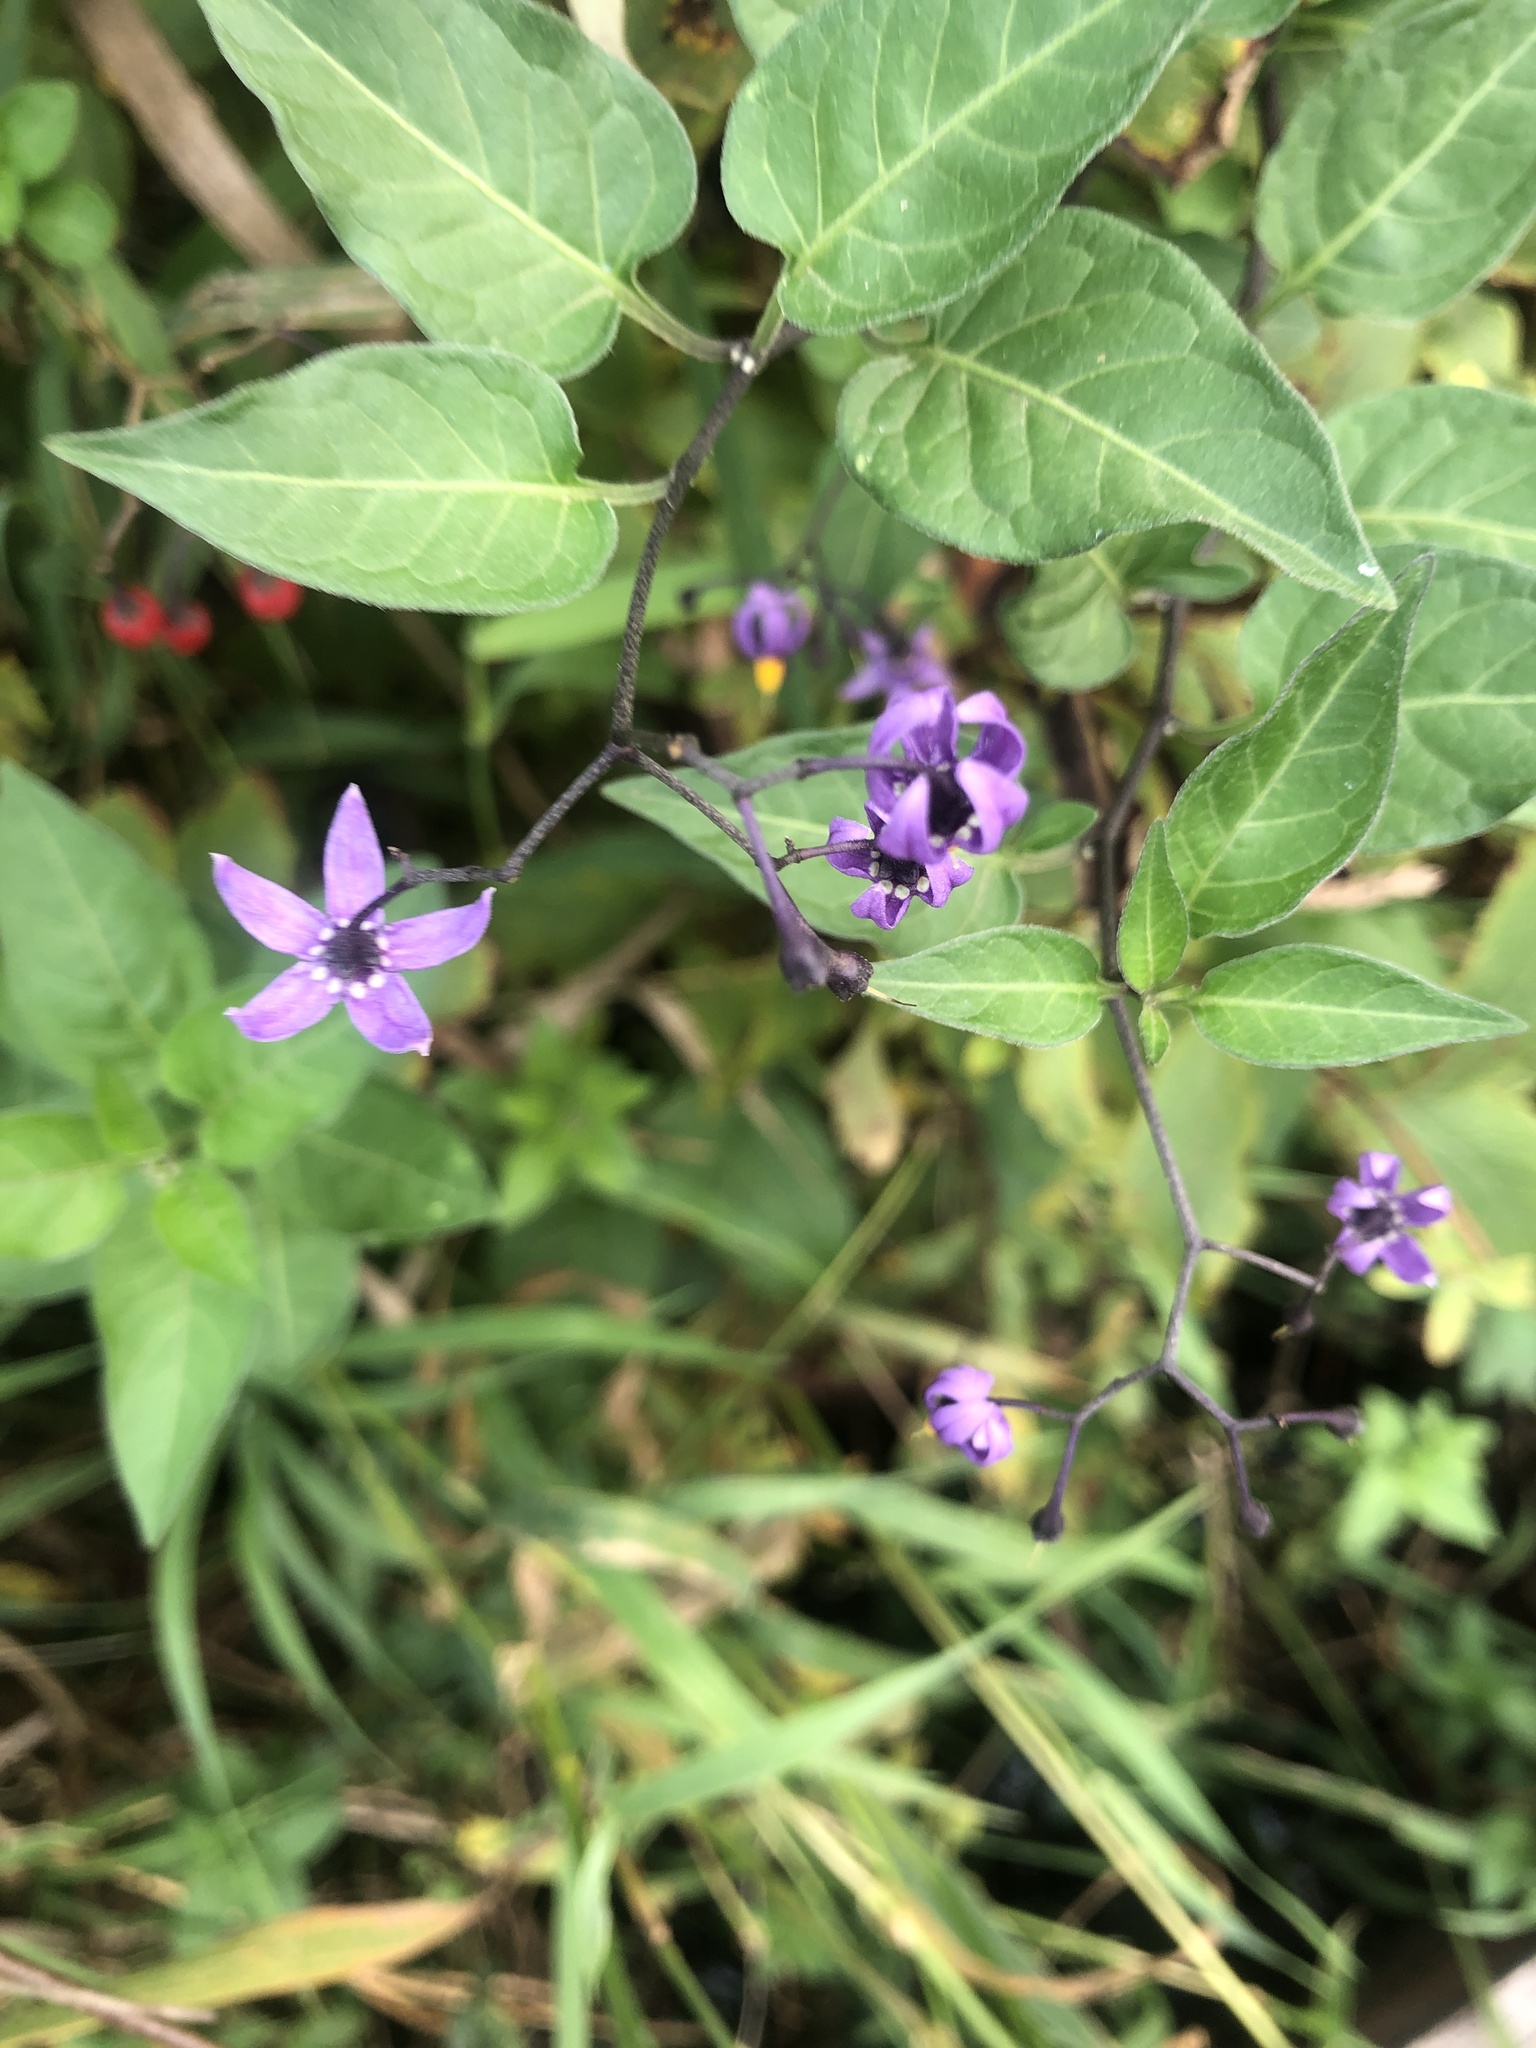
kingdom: Plantae
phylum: Tracheophyta
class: Magnoliopsida
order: Solanales
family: Solanaceae
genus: Solanum
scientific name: Solanum dulcamara
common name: Climbing nightshade
